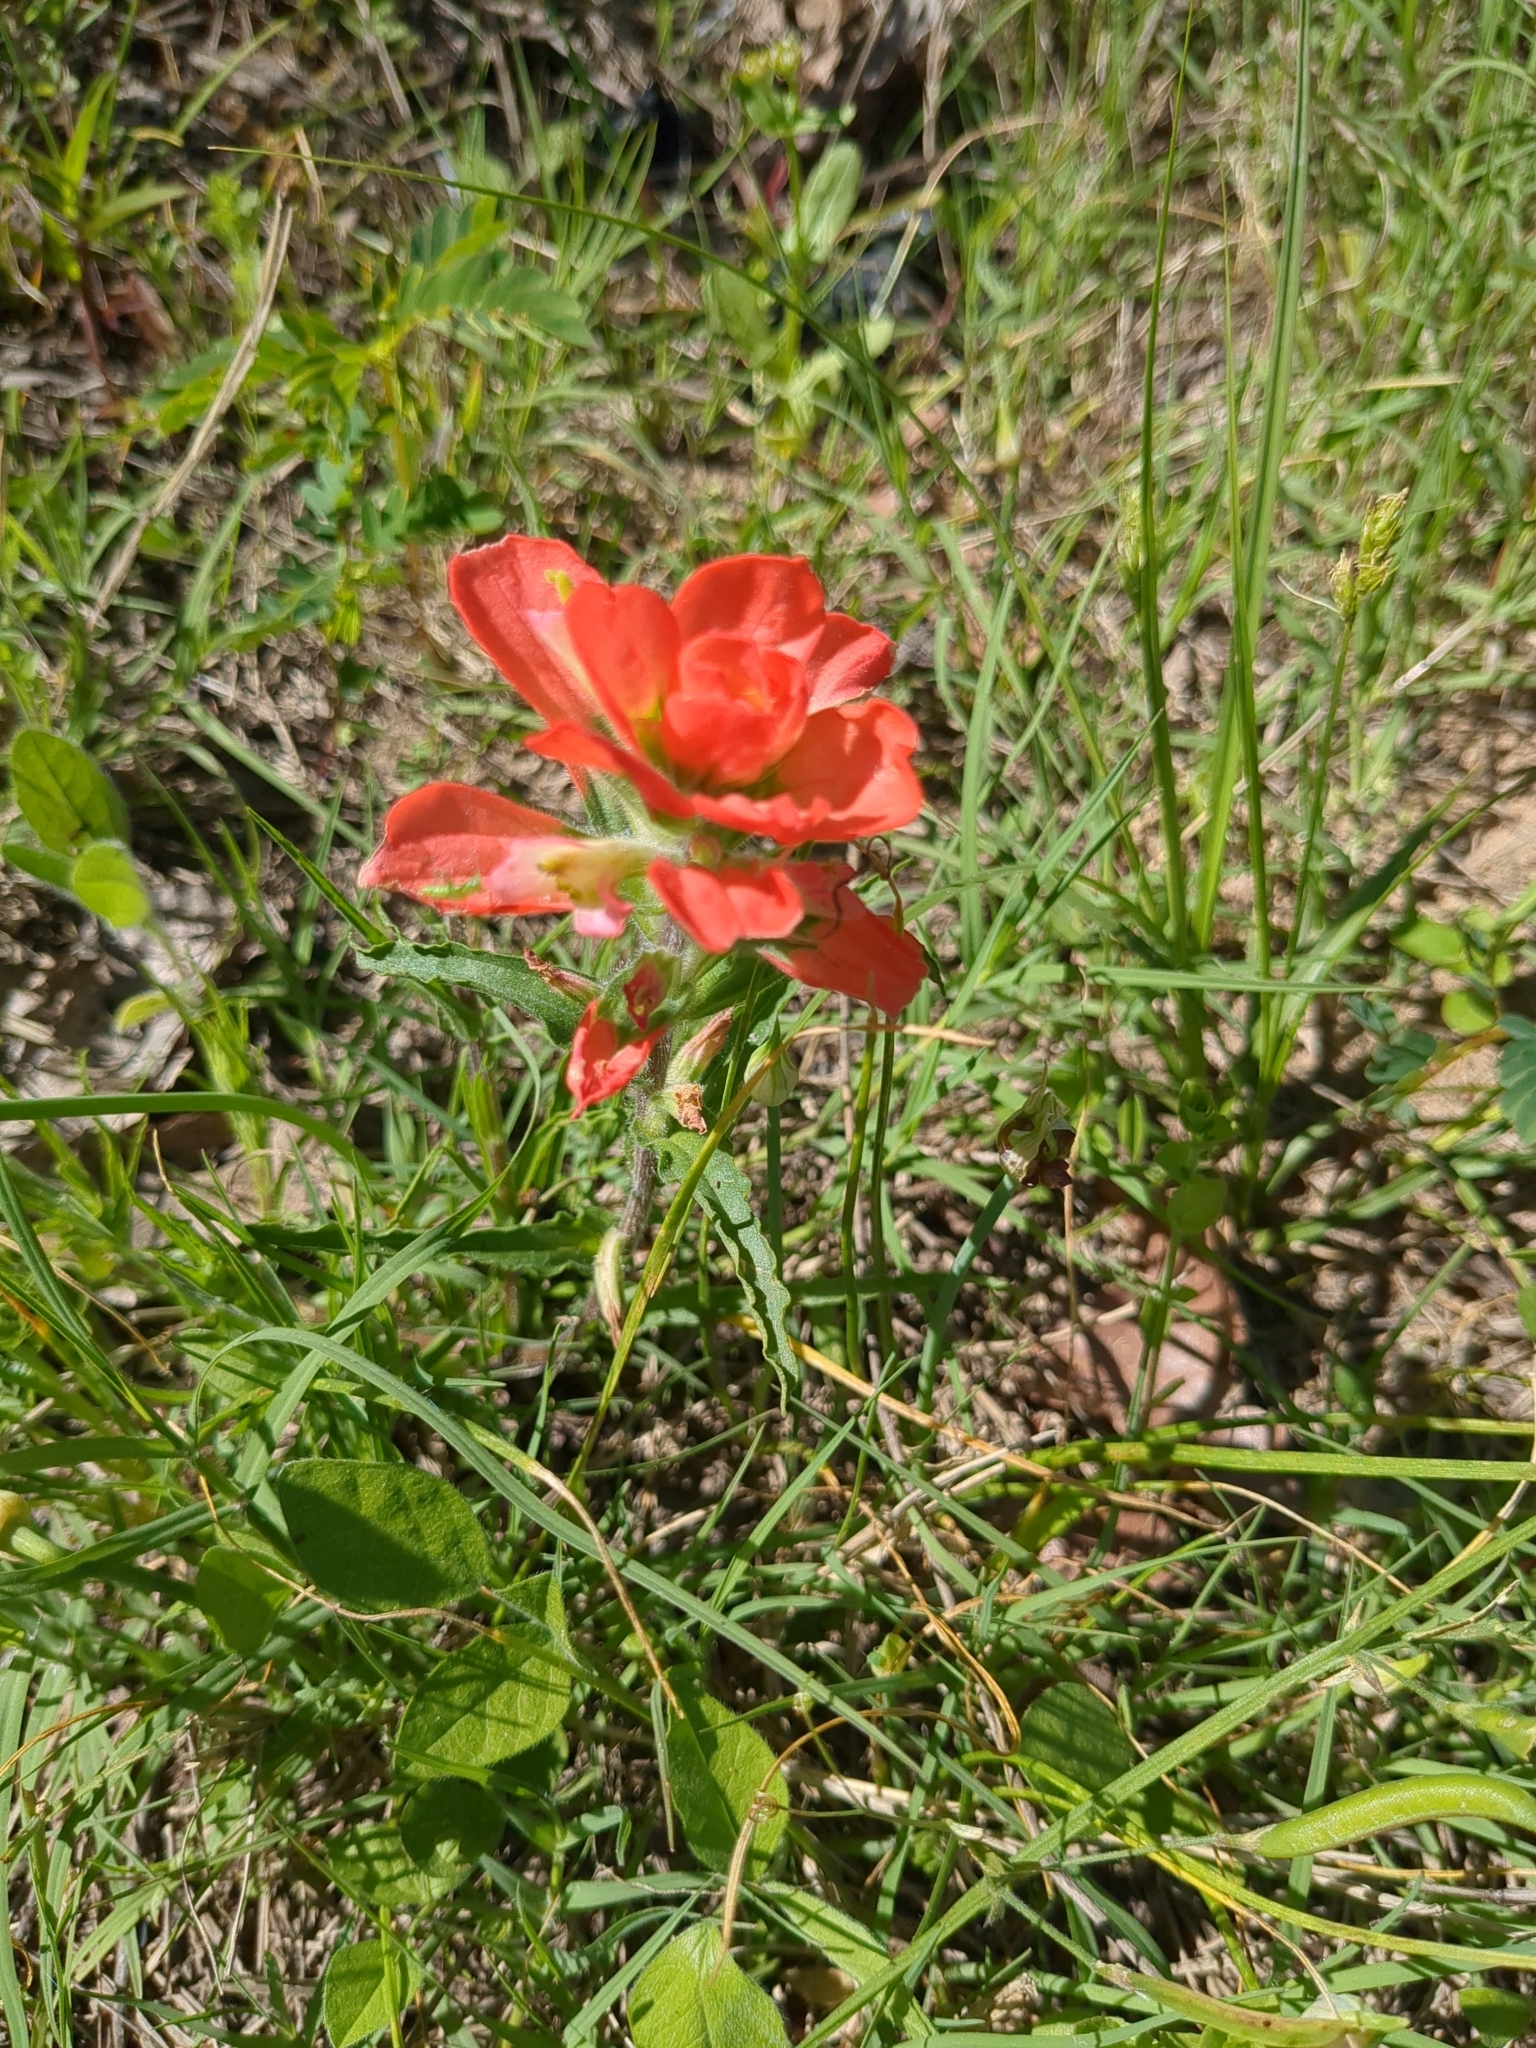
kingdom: Plantae
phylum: Tracheophyta
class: Magnoliopsida
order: Lamiales
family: Orobanchaceae
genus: Castilleja
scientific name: Castilleja indivisa
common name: Texas paintbrush
